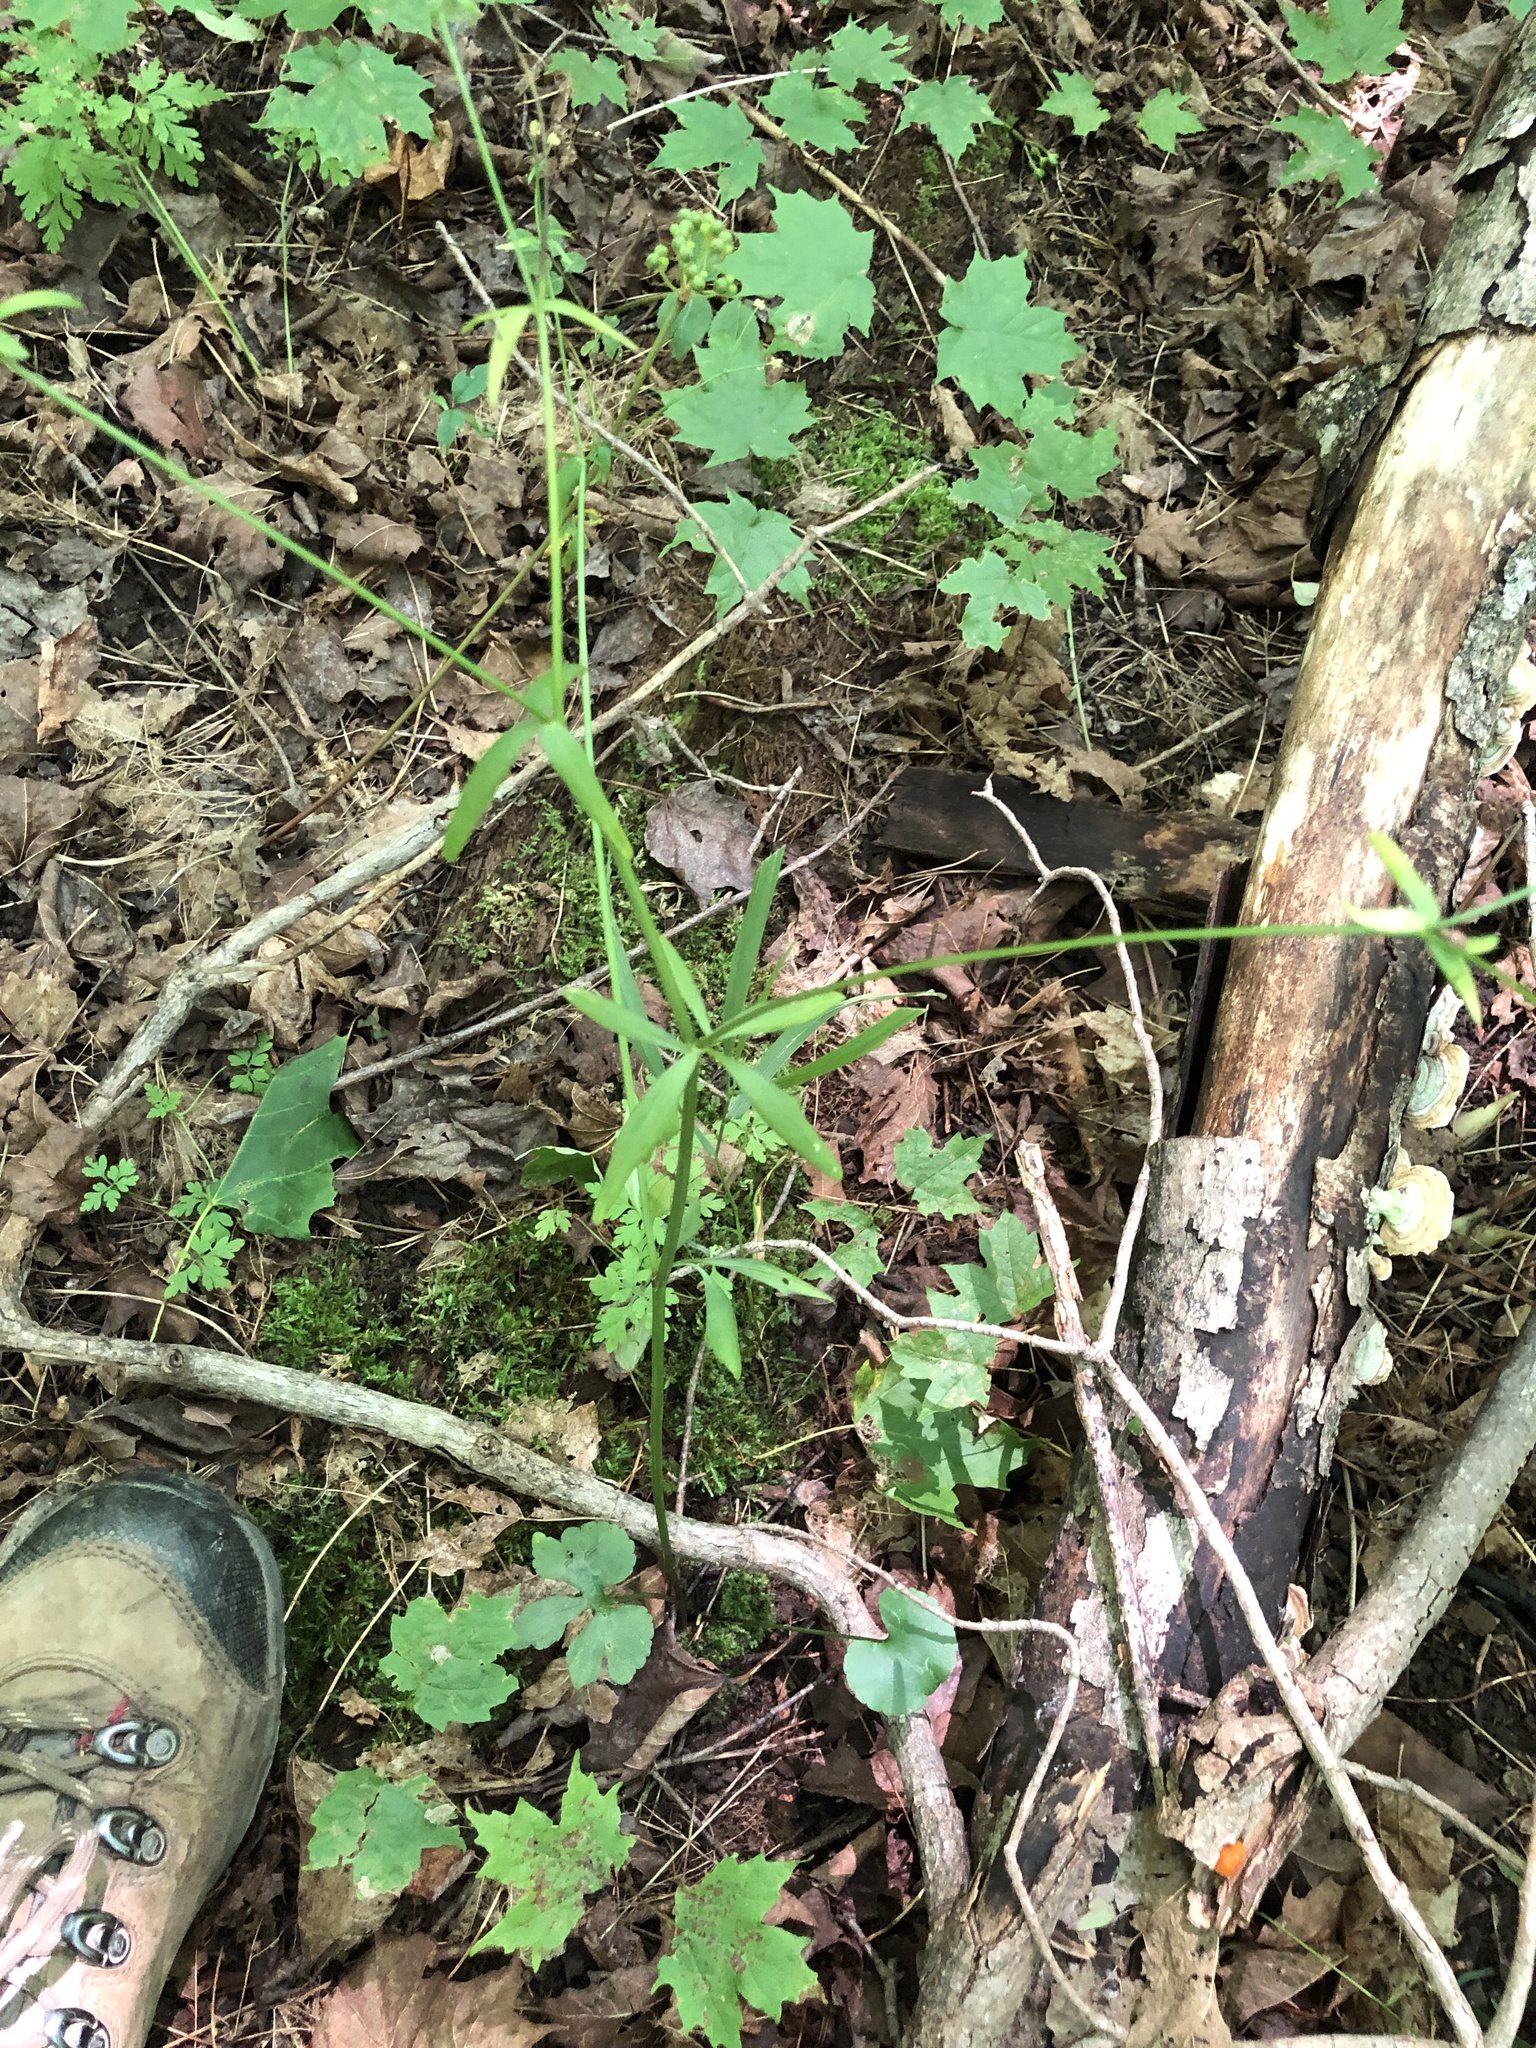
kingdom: Plantae
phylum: Tracheophyta
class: Magnoliopsida
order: Ranunculales
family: Ranunculaceae
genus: Ranunculus
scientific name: Ranunculus abortivus
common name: Early wood buttercup
